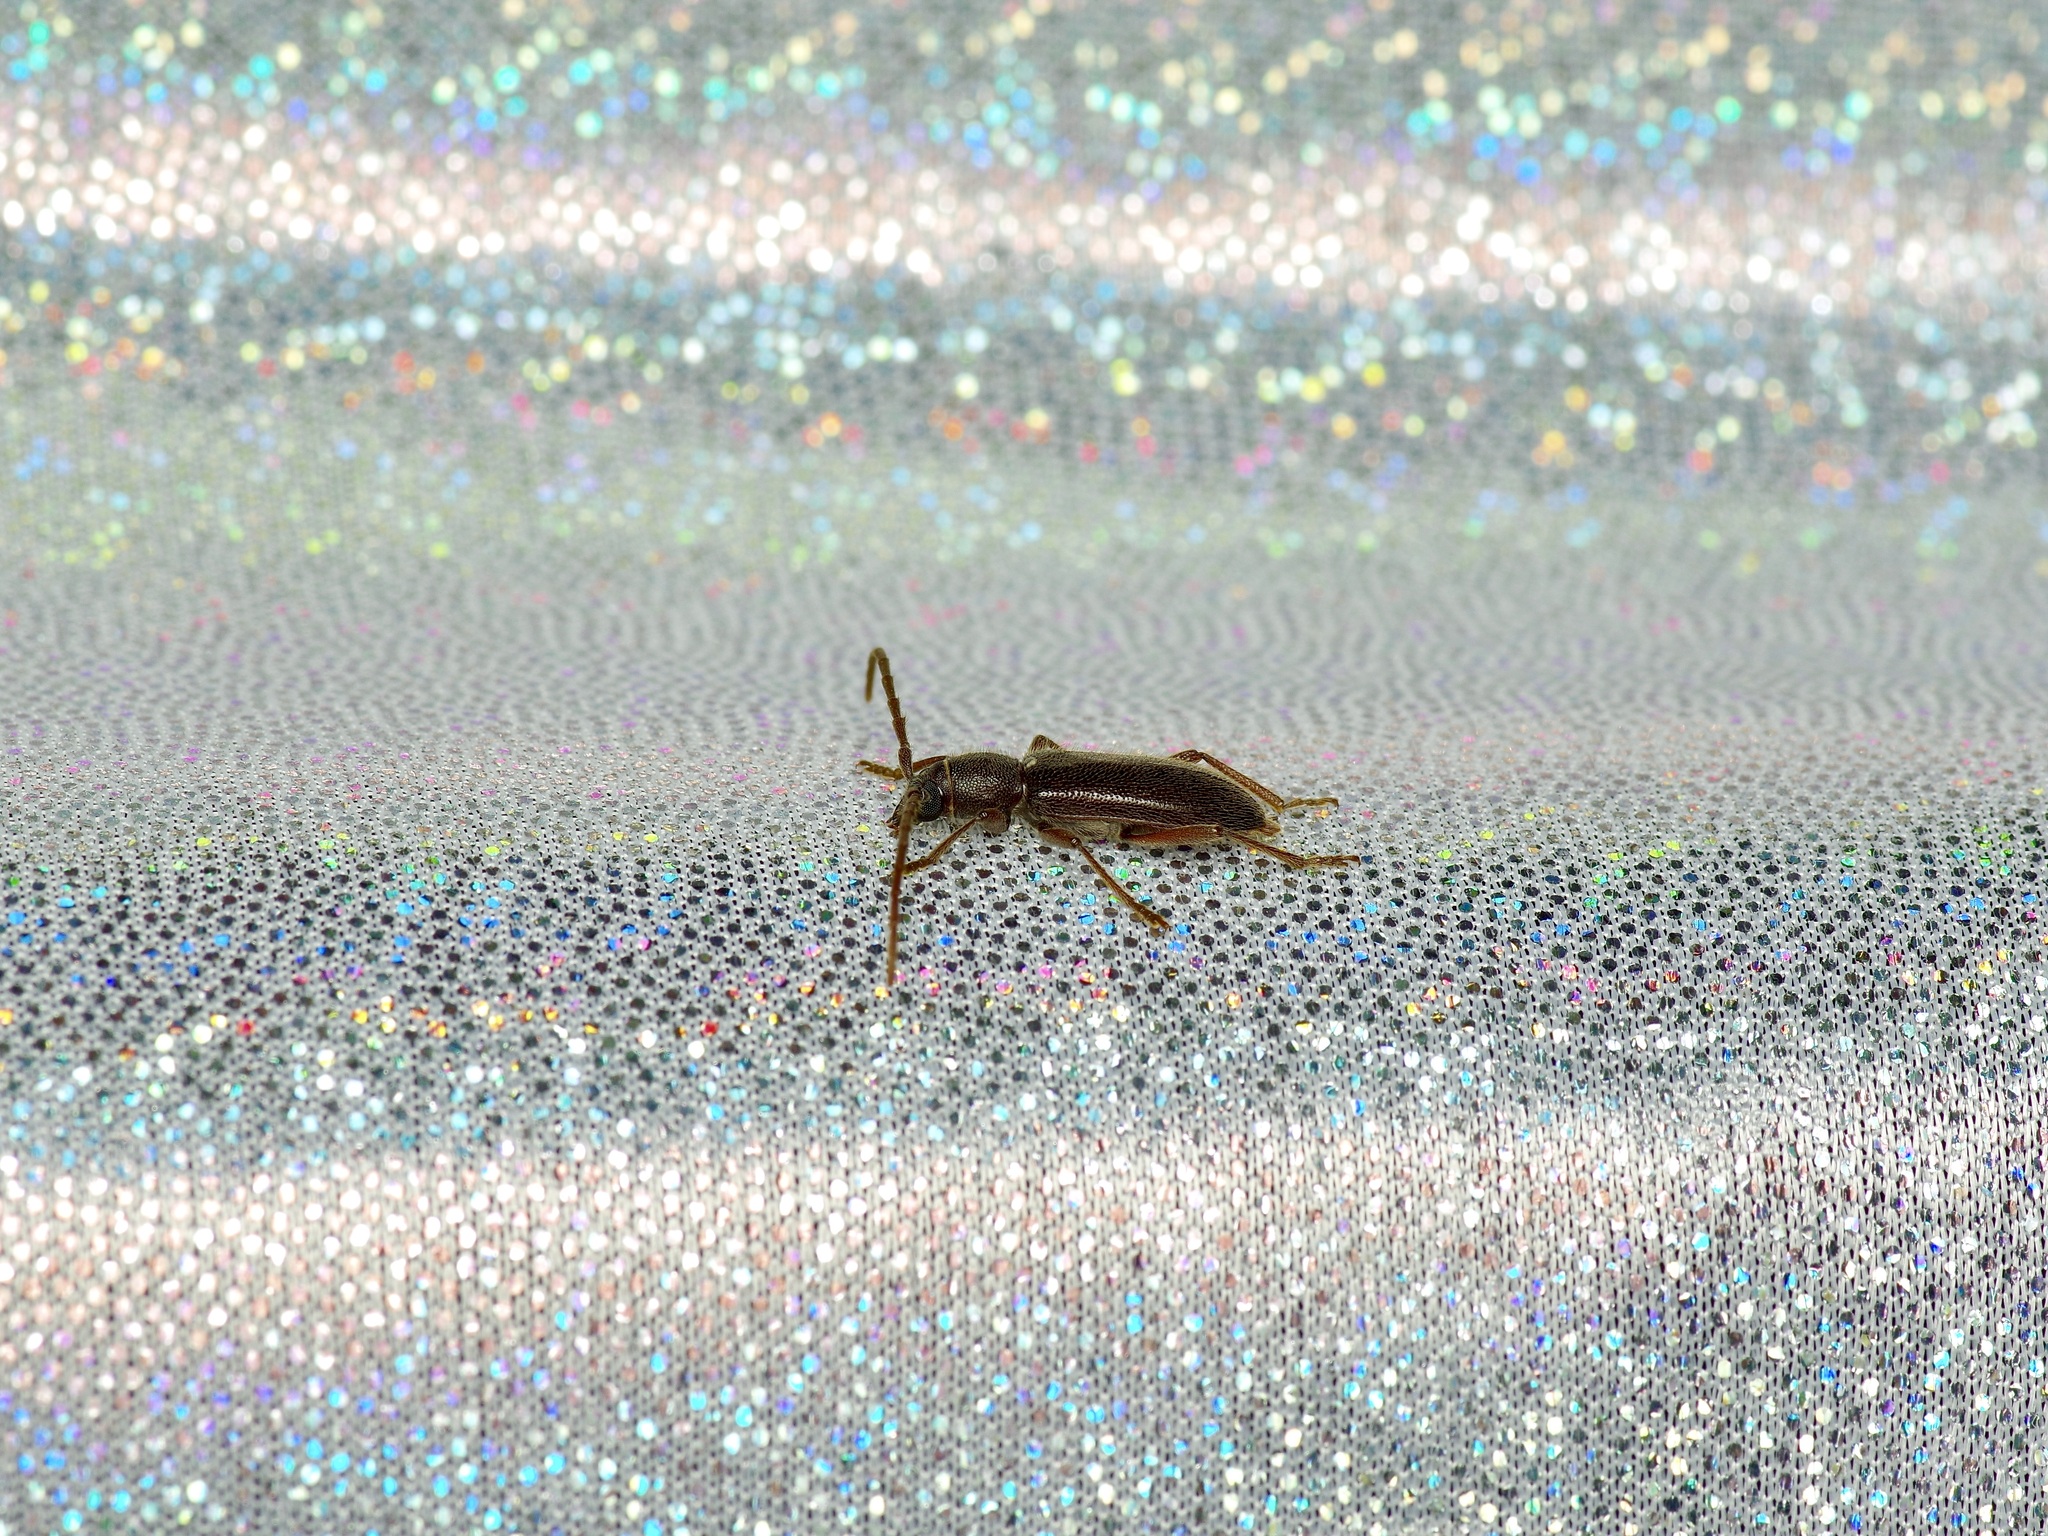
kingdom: Animalia
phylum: Arthropoda
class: Insecta
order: Coleoptera
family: Cerambycidae
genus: Anelaphus
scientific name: Anelaphus moestus
